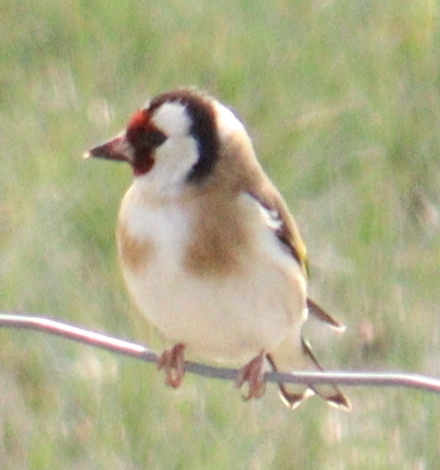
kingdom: Animalia
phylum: Chordata
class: Aves
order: Passeriformes
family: Fringillidae
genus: Carduelis
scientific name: Carduelis carduelis
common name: European goldfinch
